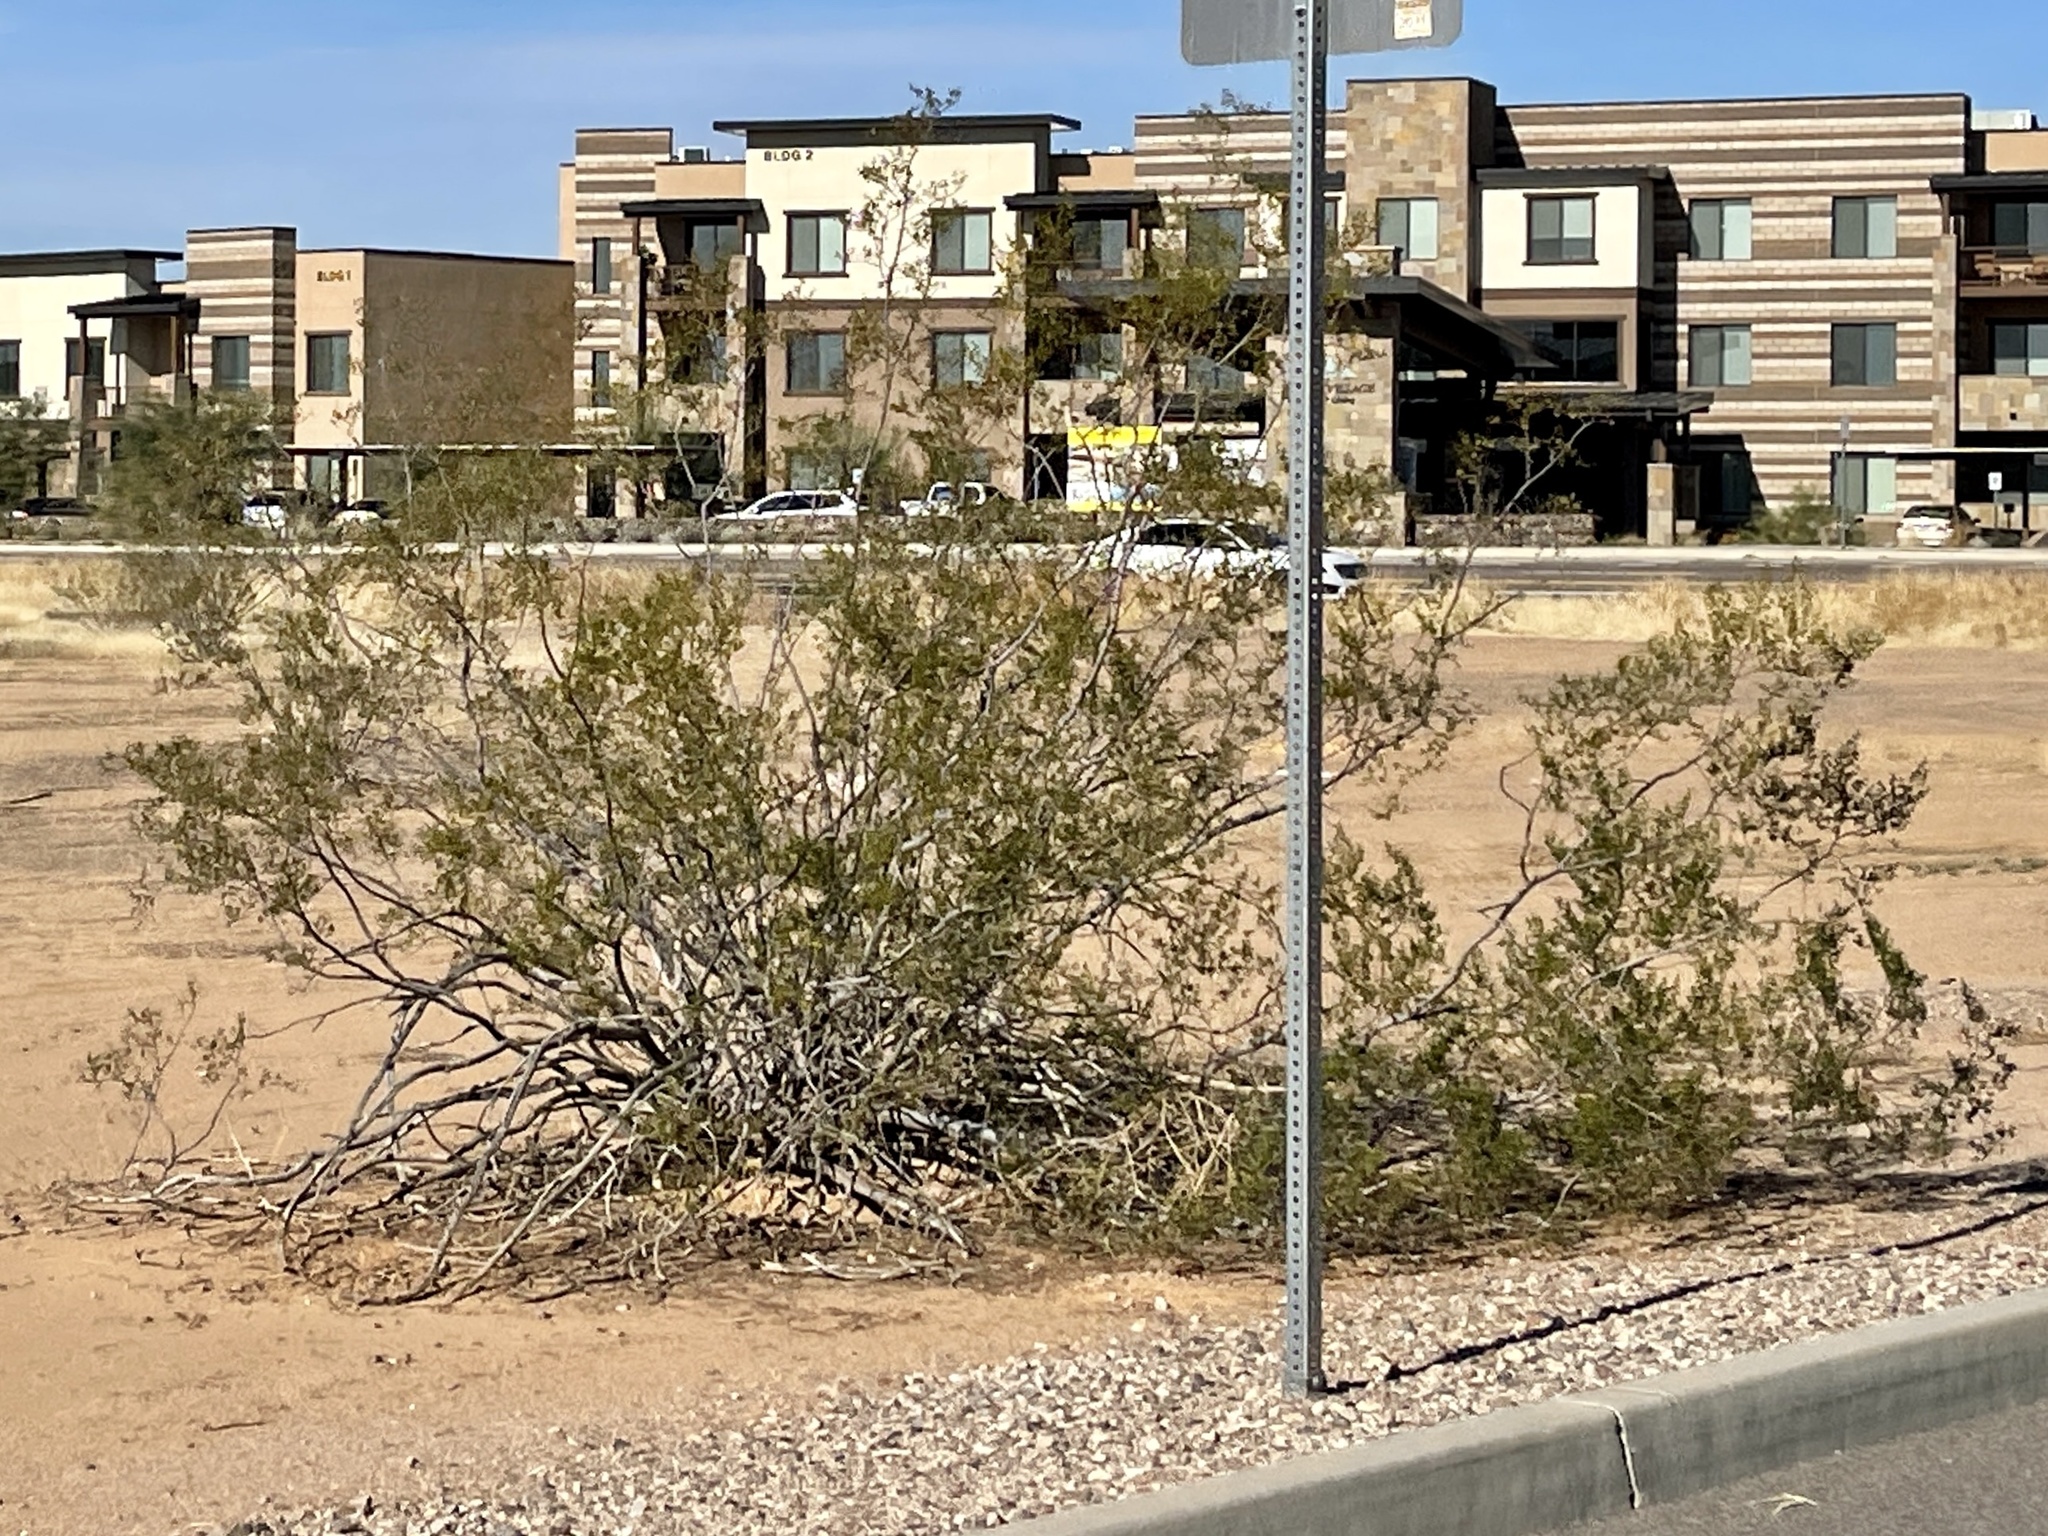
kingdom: Plantae
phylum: Tracheophyta
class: Magnoliopsida
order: Zygophyllales
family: Zygophyllaceae
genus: Larrea
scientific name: Larrea tridentata
